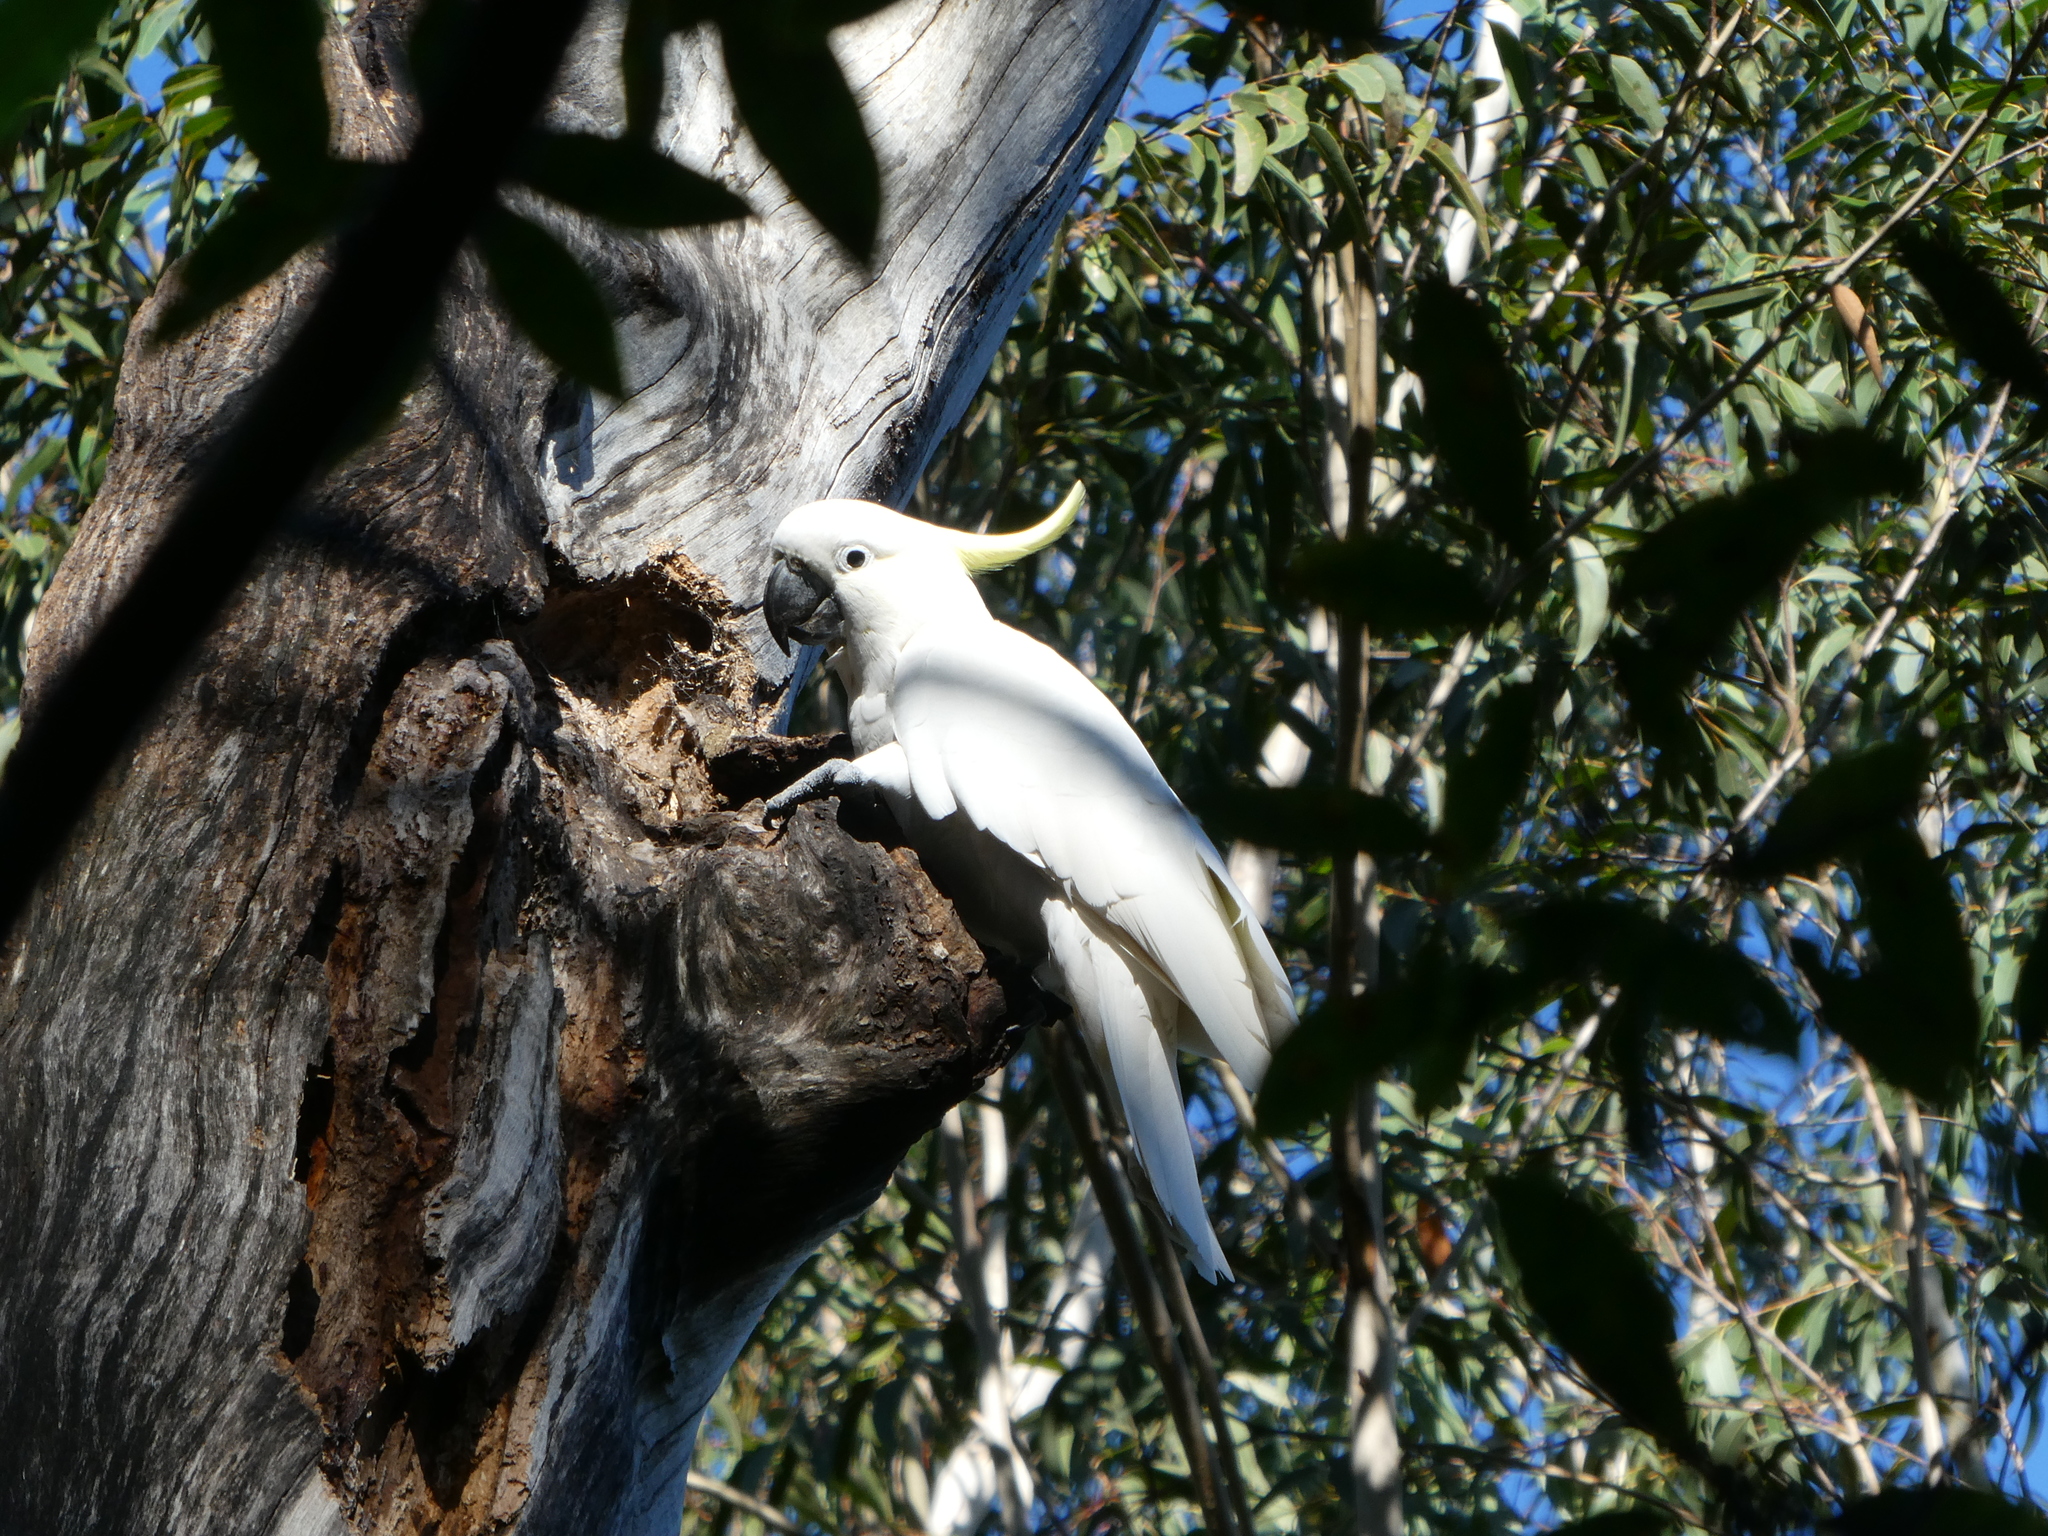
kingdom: Animalia
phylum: Chordata
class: Aves
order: Psittaciformes
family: Psittacidae
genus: Cacatua
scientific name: Cacatua galerita
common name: Sulphur-crested cockatoo
